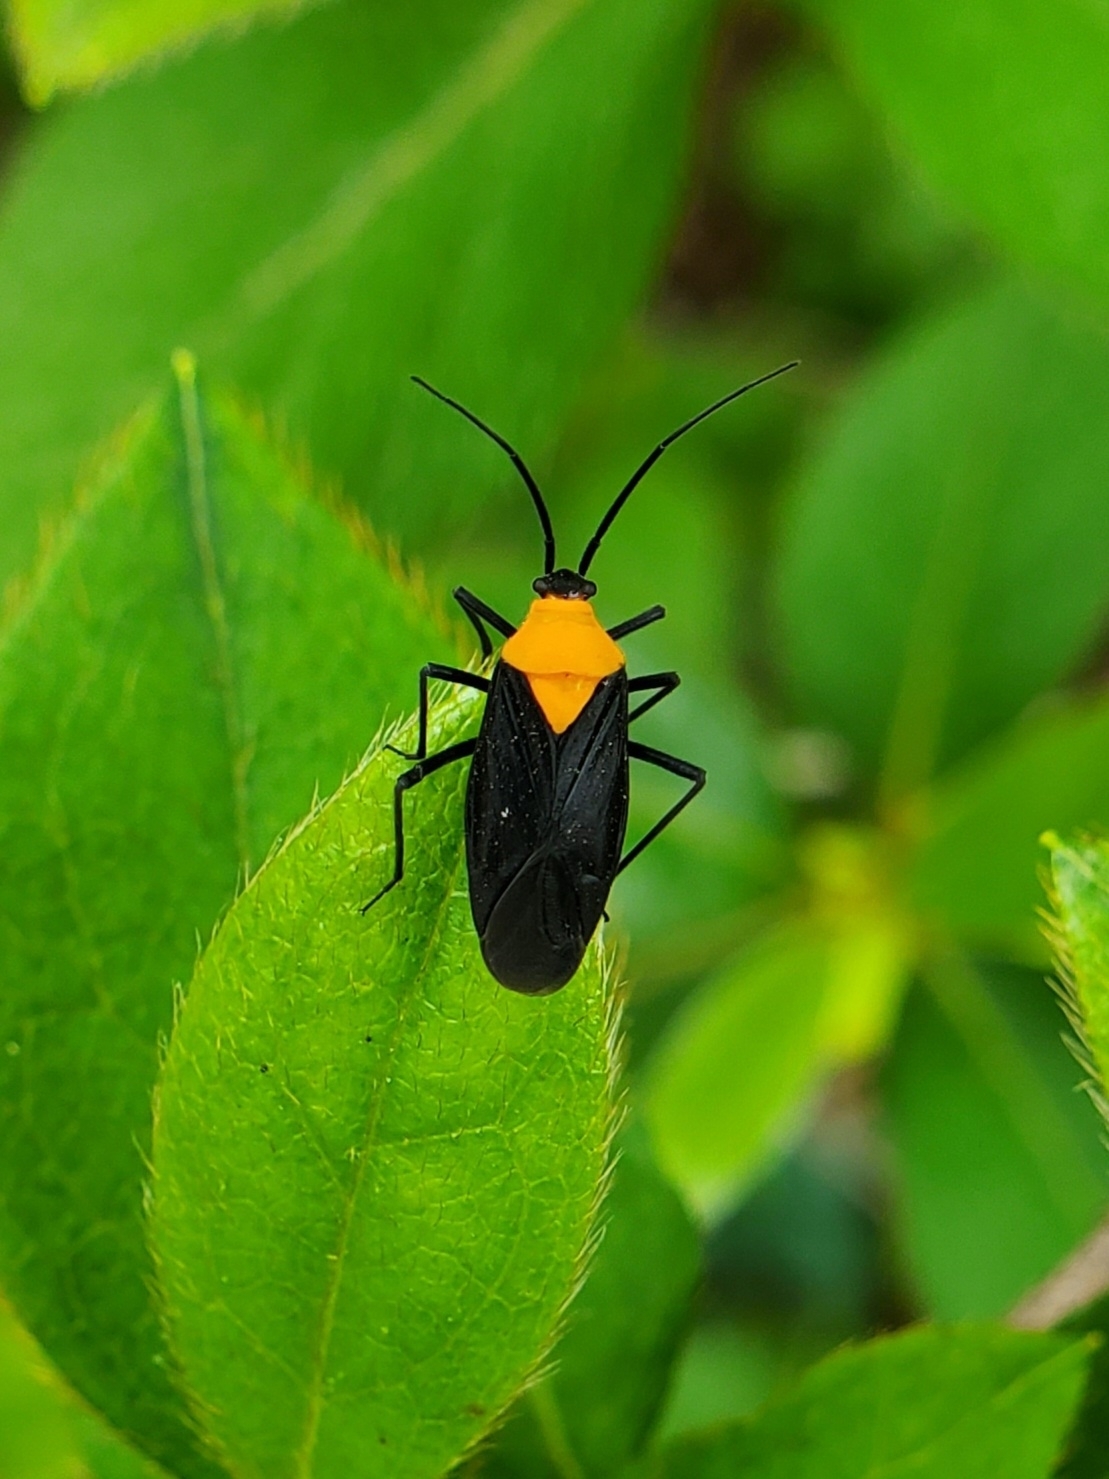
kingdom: Animalia
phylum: Arthropoda
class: Insecta
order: Hemiptera
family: Miridae
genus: Prepops
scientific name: Prepops insitivus
